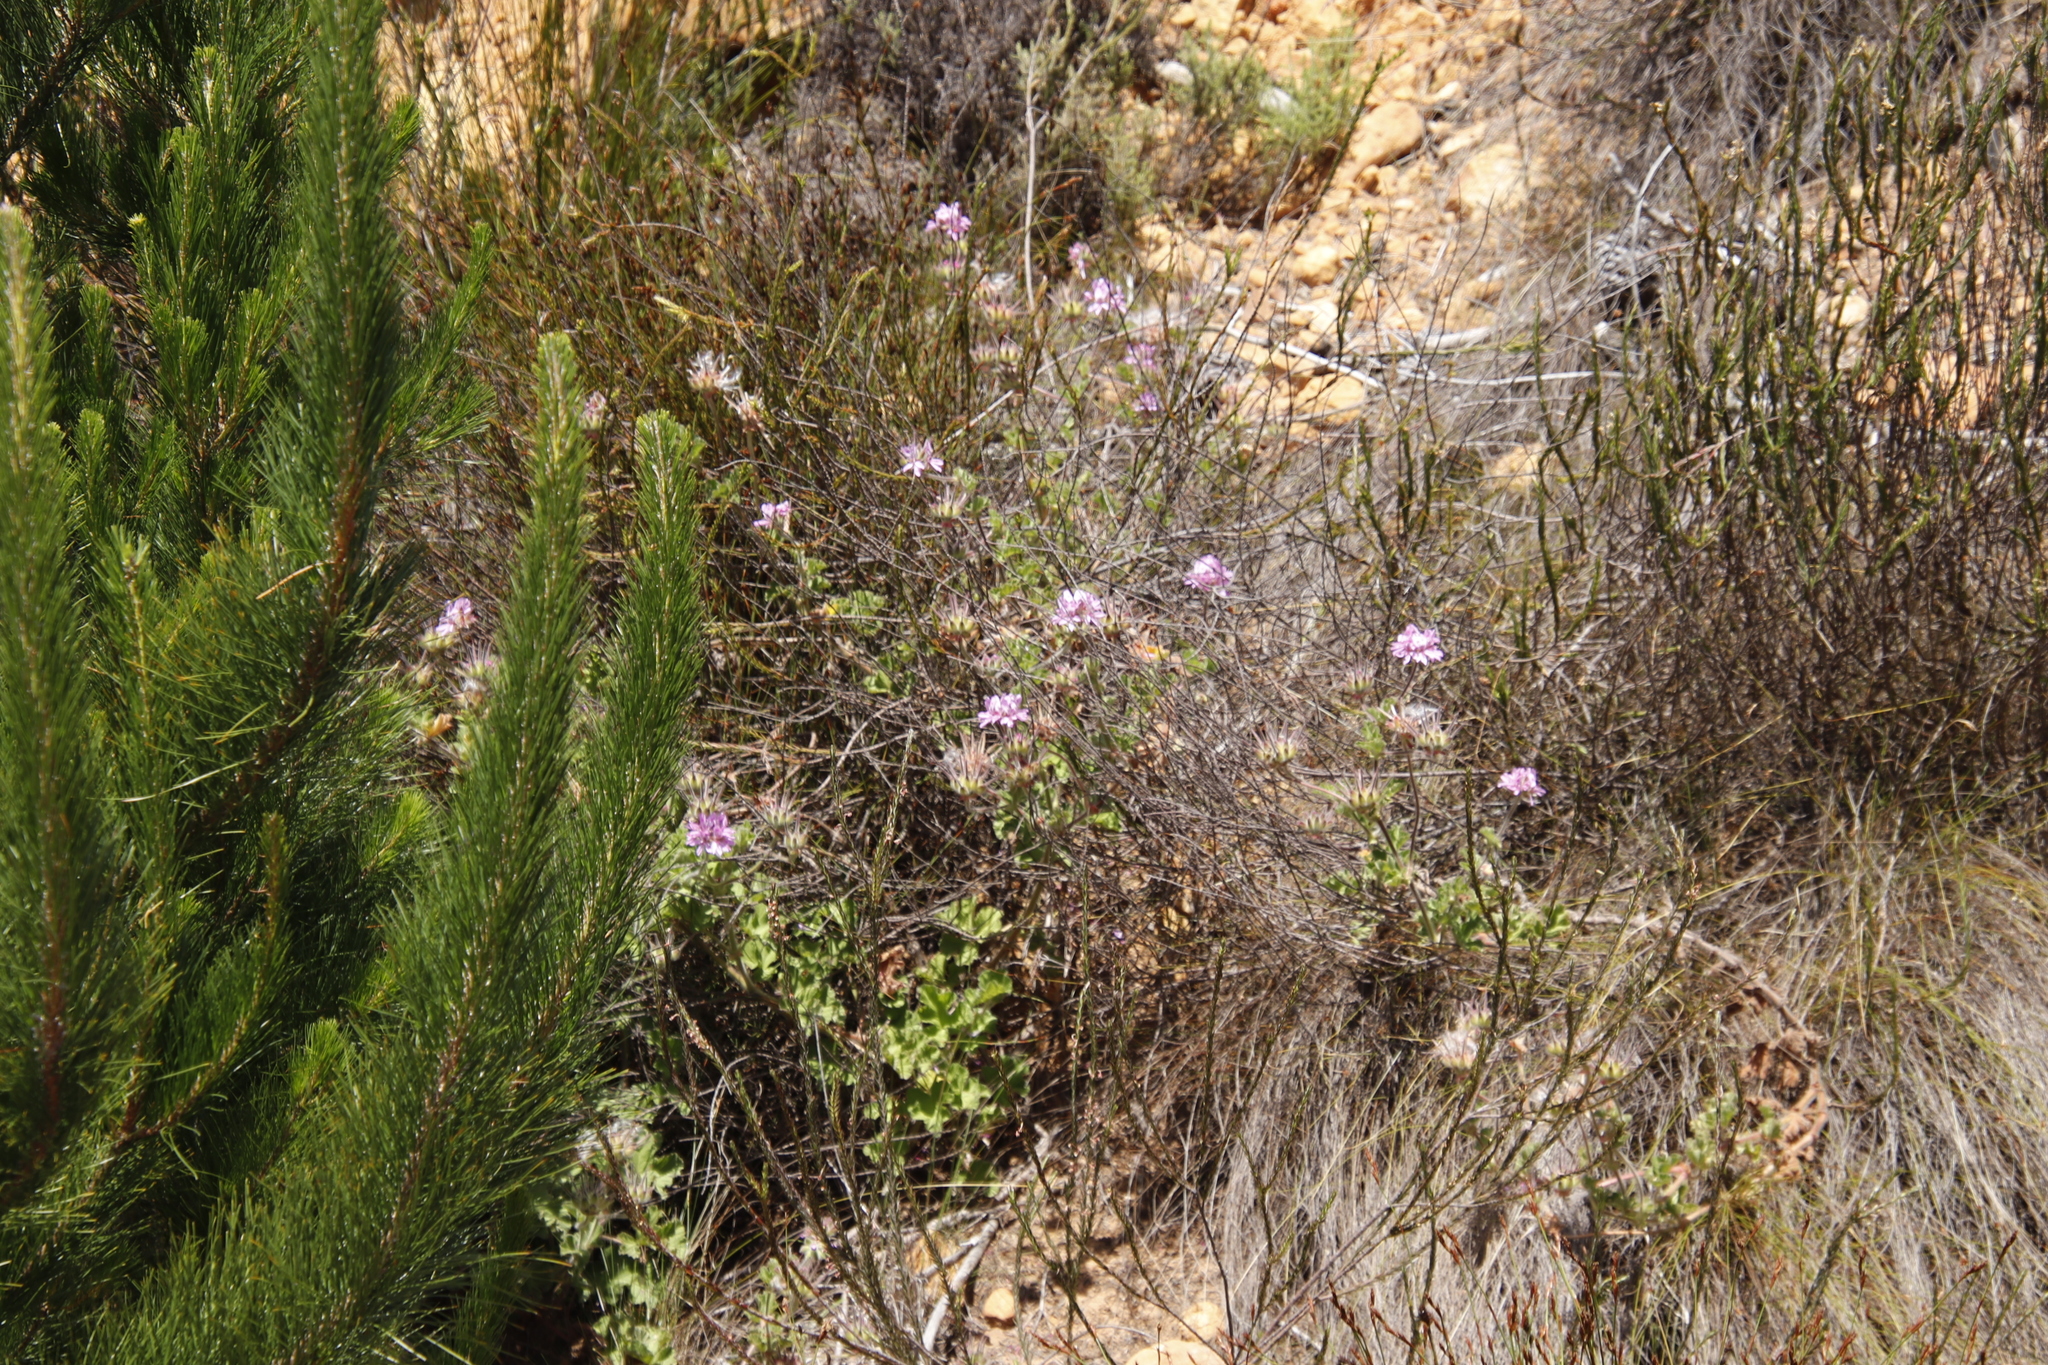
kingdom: Plantae
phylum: Tracheophyta
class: Magnoliopsida
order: Geraniales
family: Geraniaceae
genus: Pelargonium
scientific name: Pelargonium capitatum
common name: Rose scented geranium
